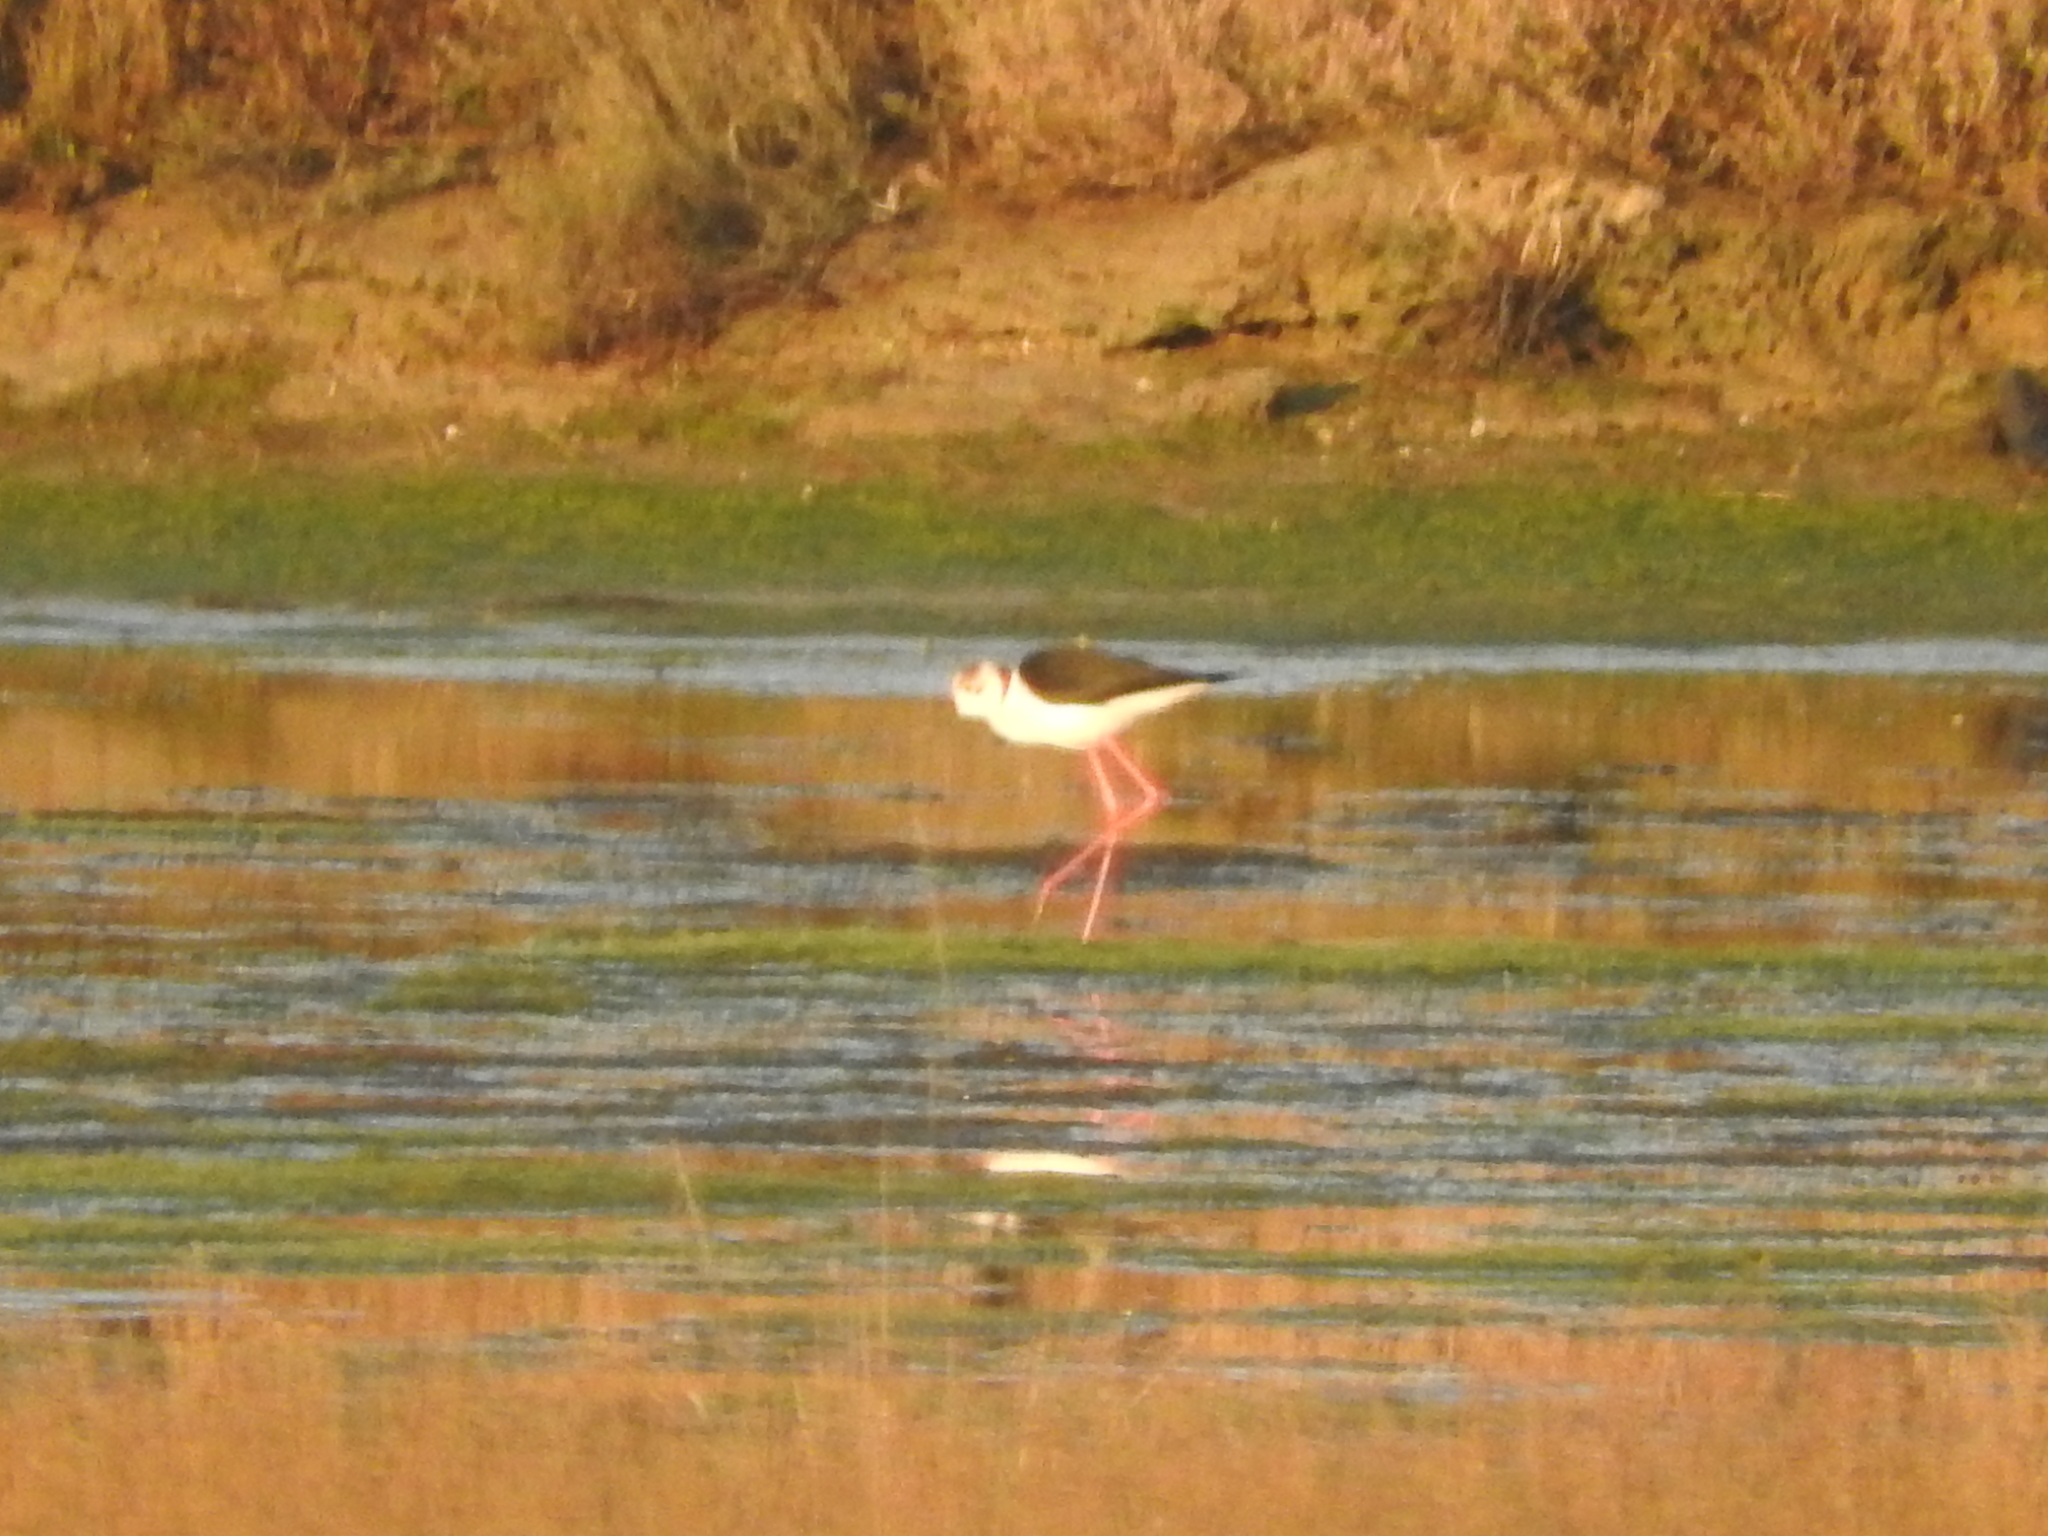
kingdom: Animalia
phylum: Chordata
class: Aves
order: Charadriiformes
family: Recurvirostridae
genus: Himantopus
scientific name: Himantopus himantopus
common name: Black-winged stilt
